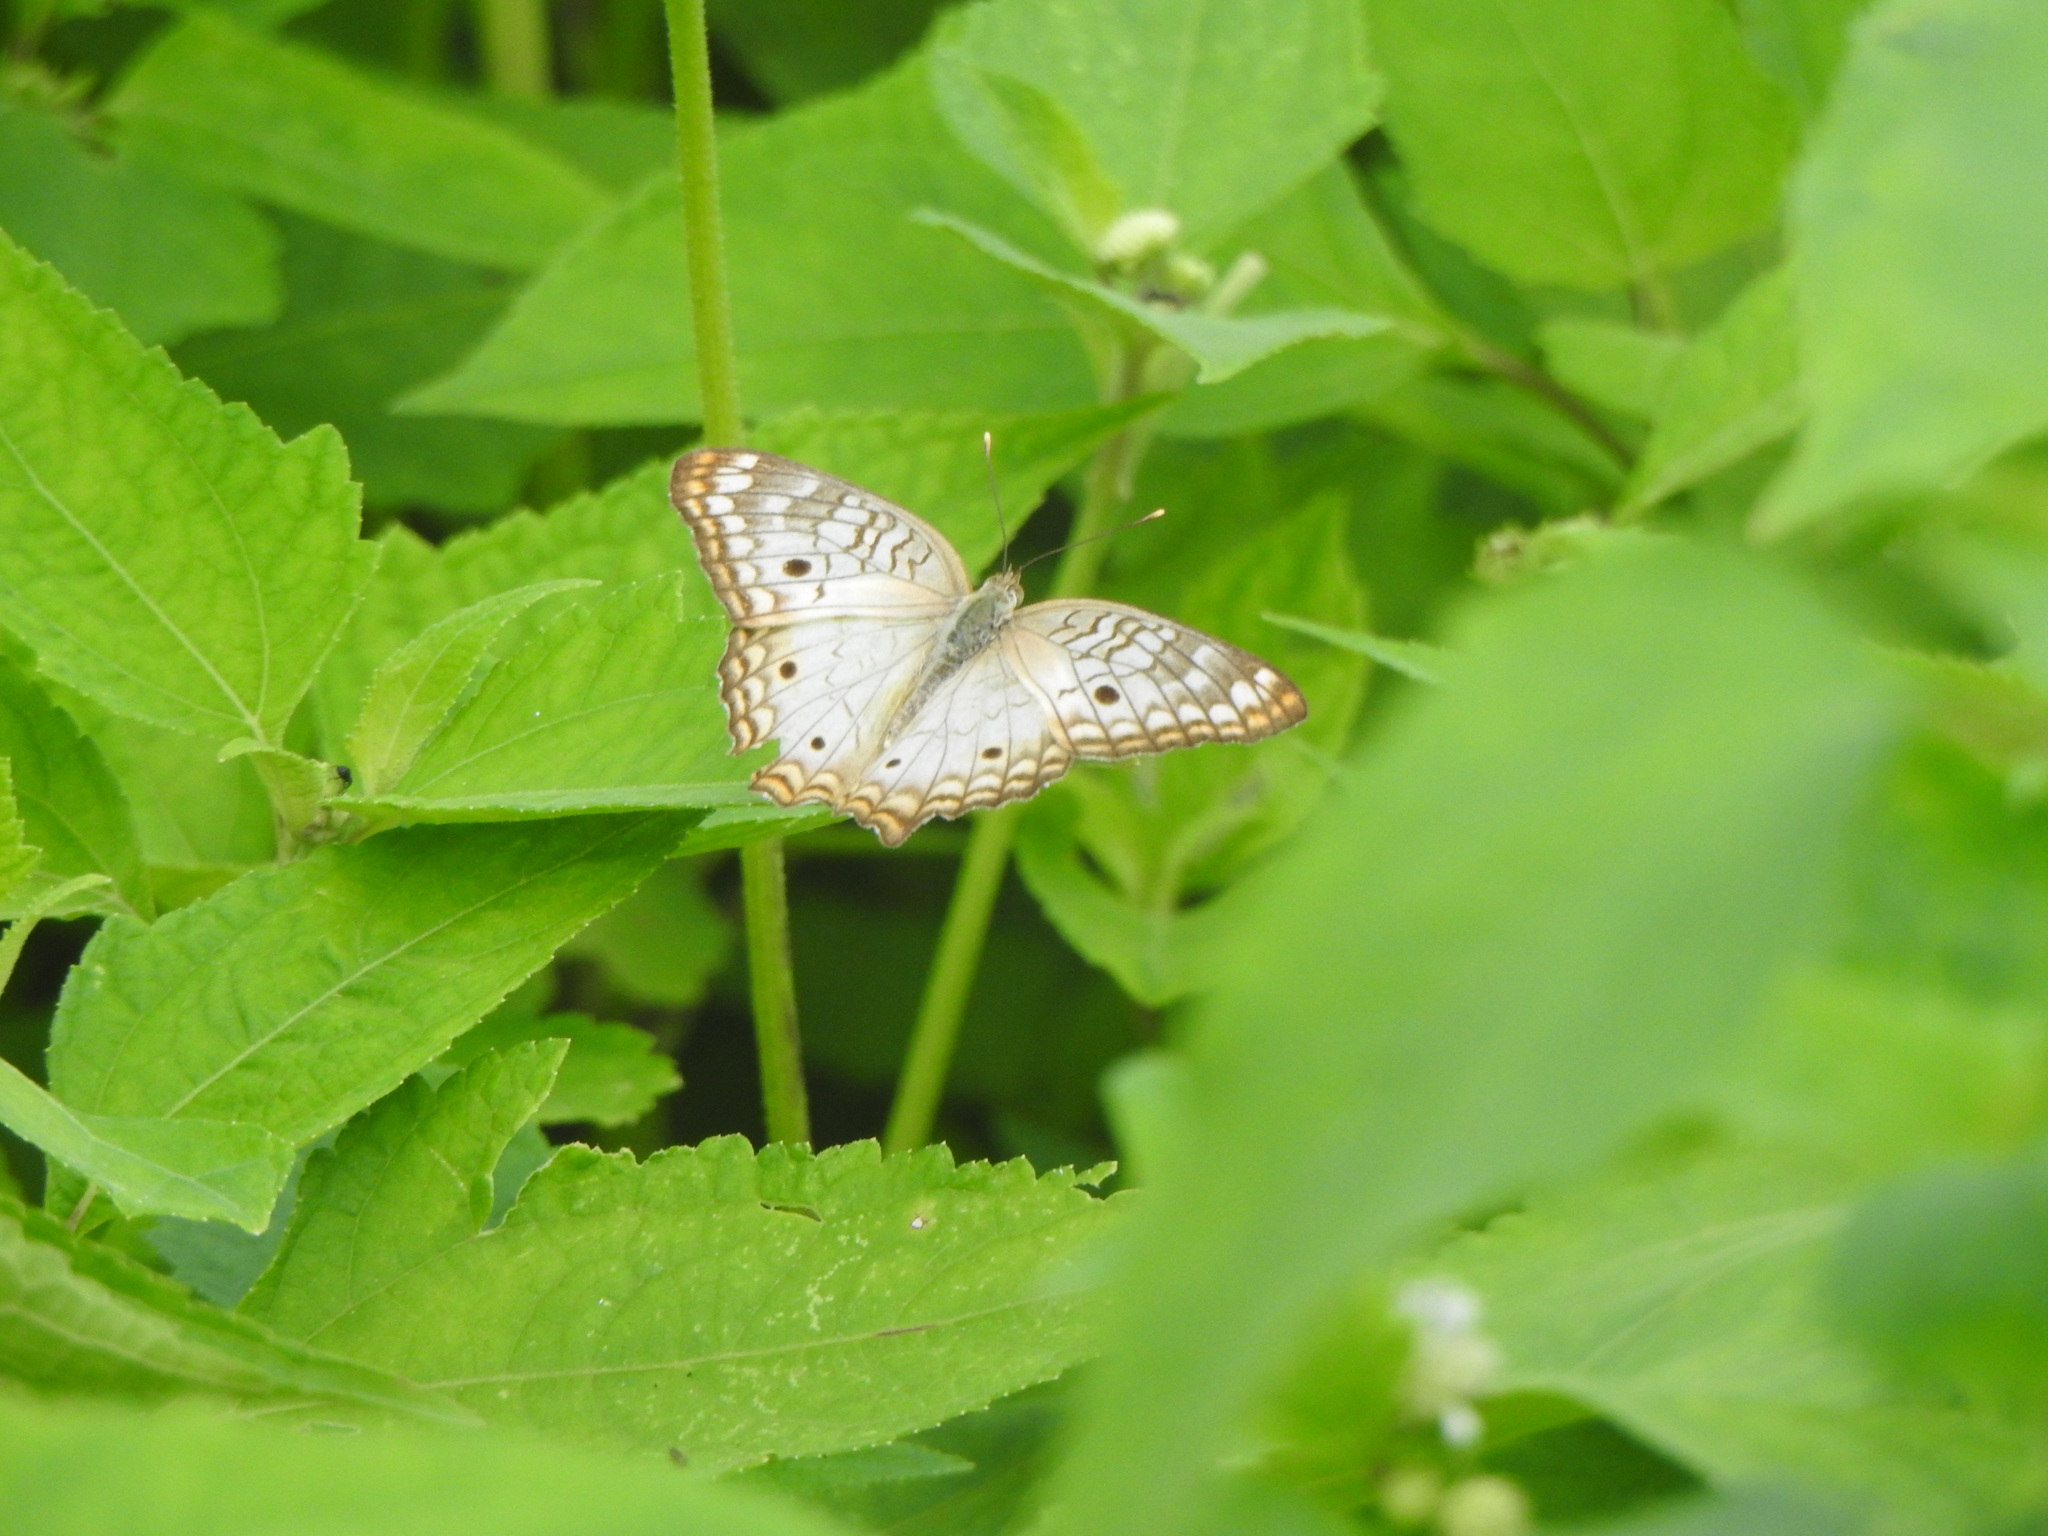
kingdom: Animalia
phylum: Arthropoda
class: Insecta
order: Lepidoptera
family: Nymphalidae
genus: Anartia
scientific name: Anartia jatrophae
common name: White peacock
